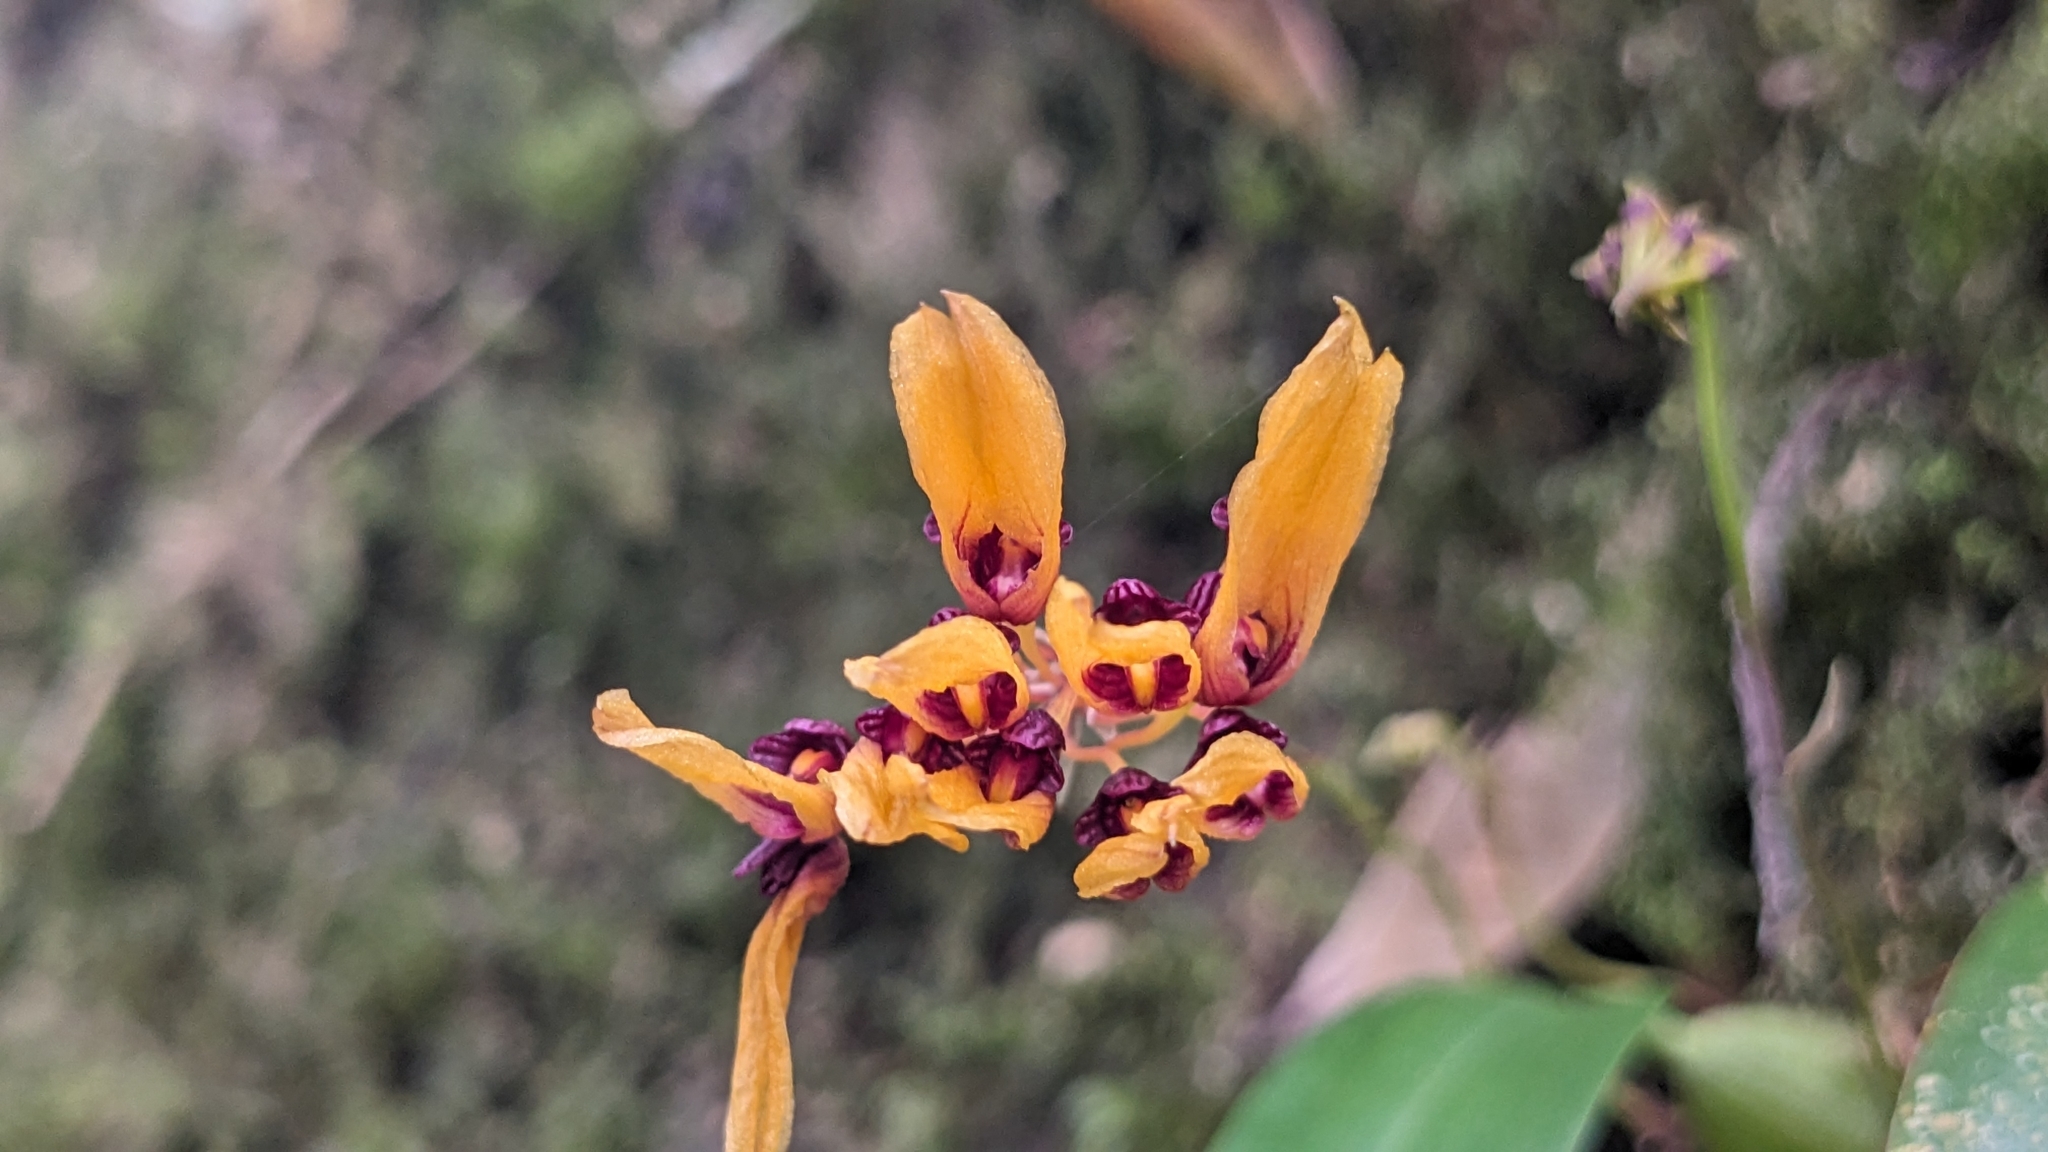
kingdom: Plantae
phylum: Tracheophyta
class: Liliopsida
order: Asparagales
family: Orchidaceae
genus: Bulbophyllum
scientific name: Bulbophyllum retusiusculum
